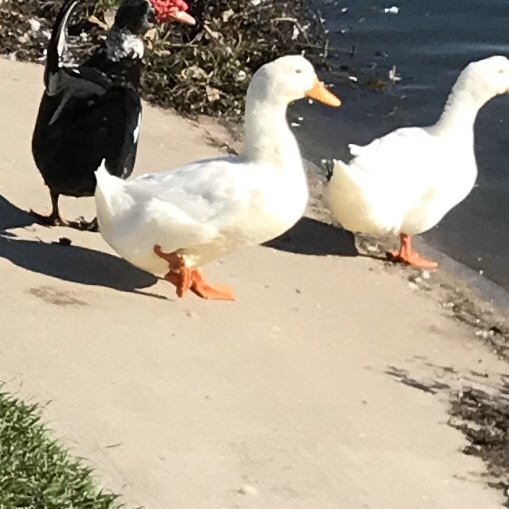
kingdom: Animalia
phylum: Chordata
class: Aves
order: Anseriformes
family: Anatidae
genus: Anas
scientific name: Anas platyrhynchos
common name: Mallard
